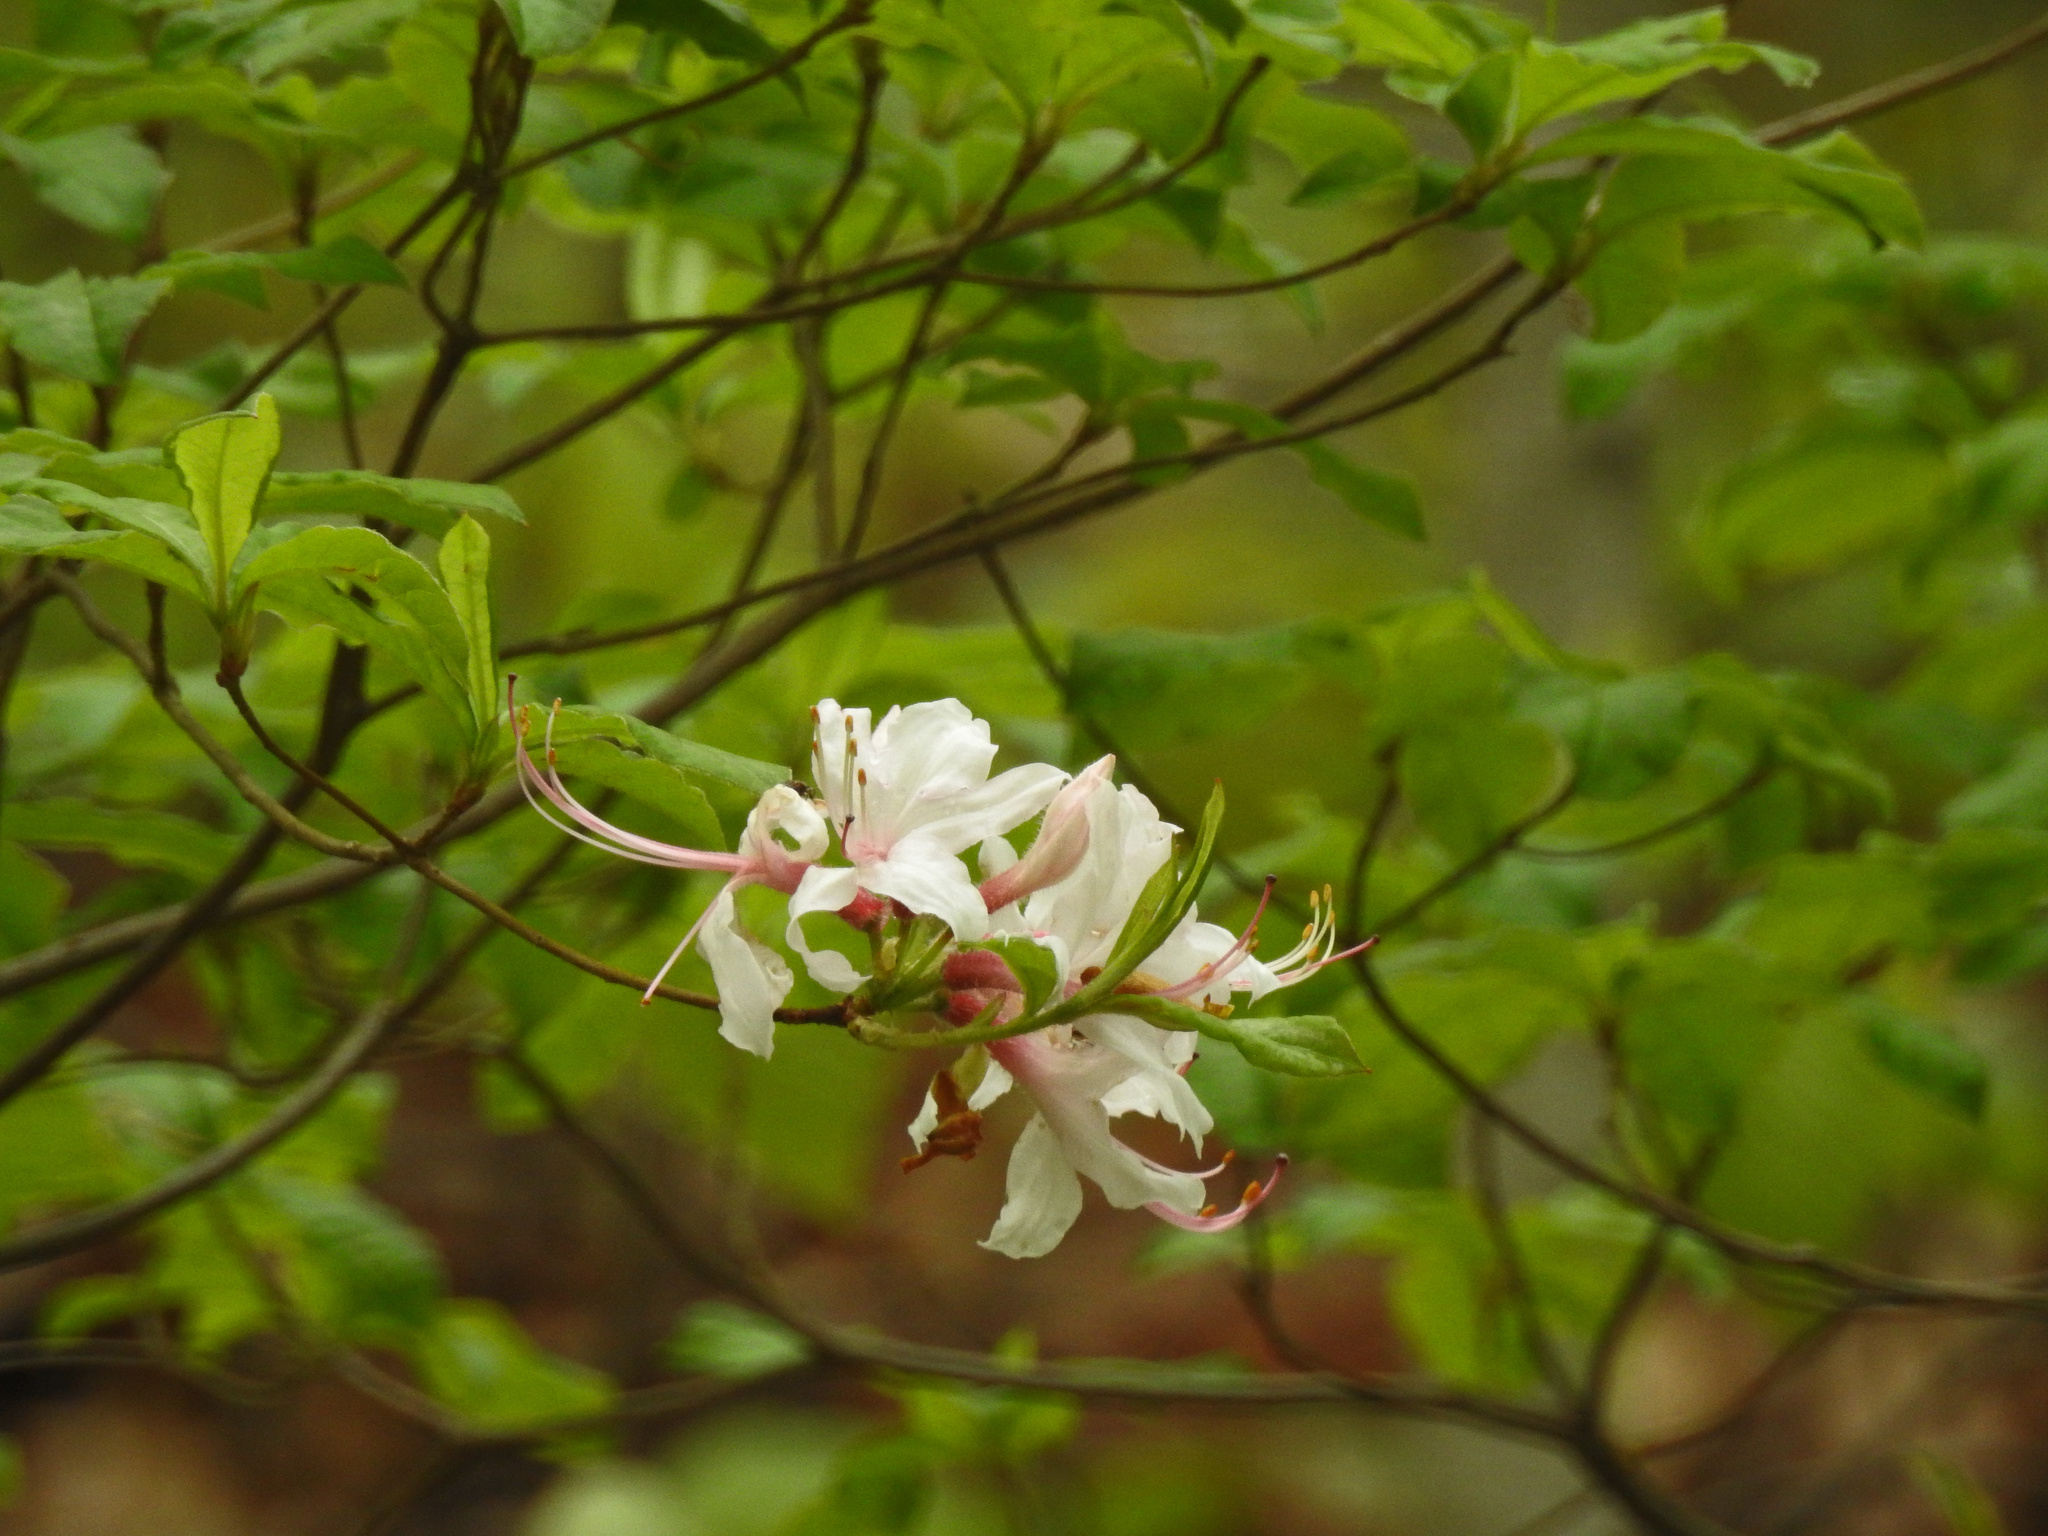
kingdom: Plantae
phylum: Tracheophyta
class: Magnoliopsida
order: Ericales
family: Ericaceae
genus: Rhododendron
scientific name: Rhododendron periclymenoides
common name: Election-pink
